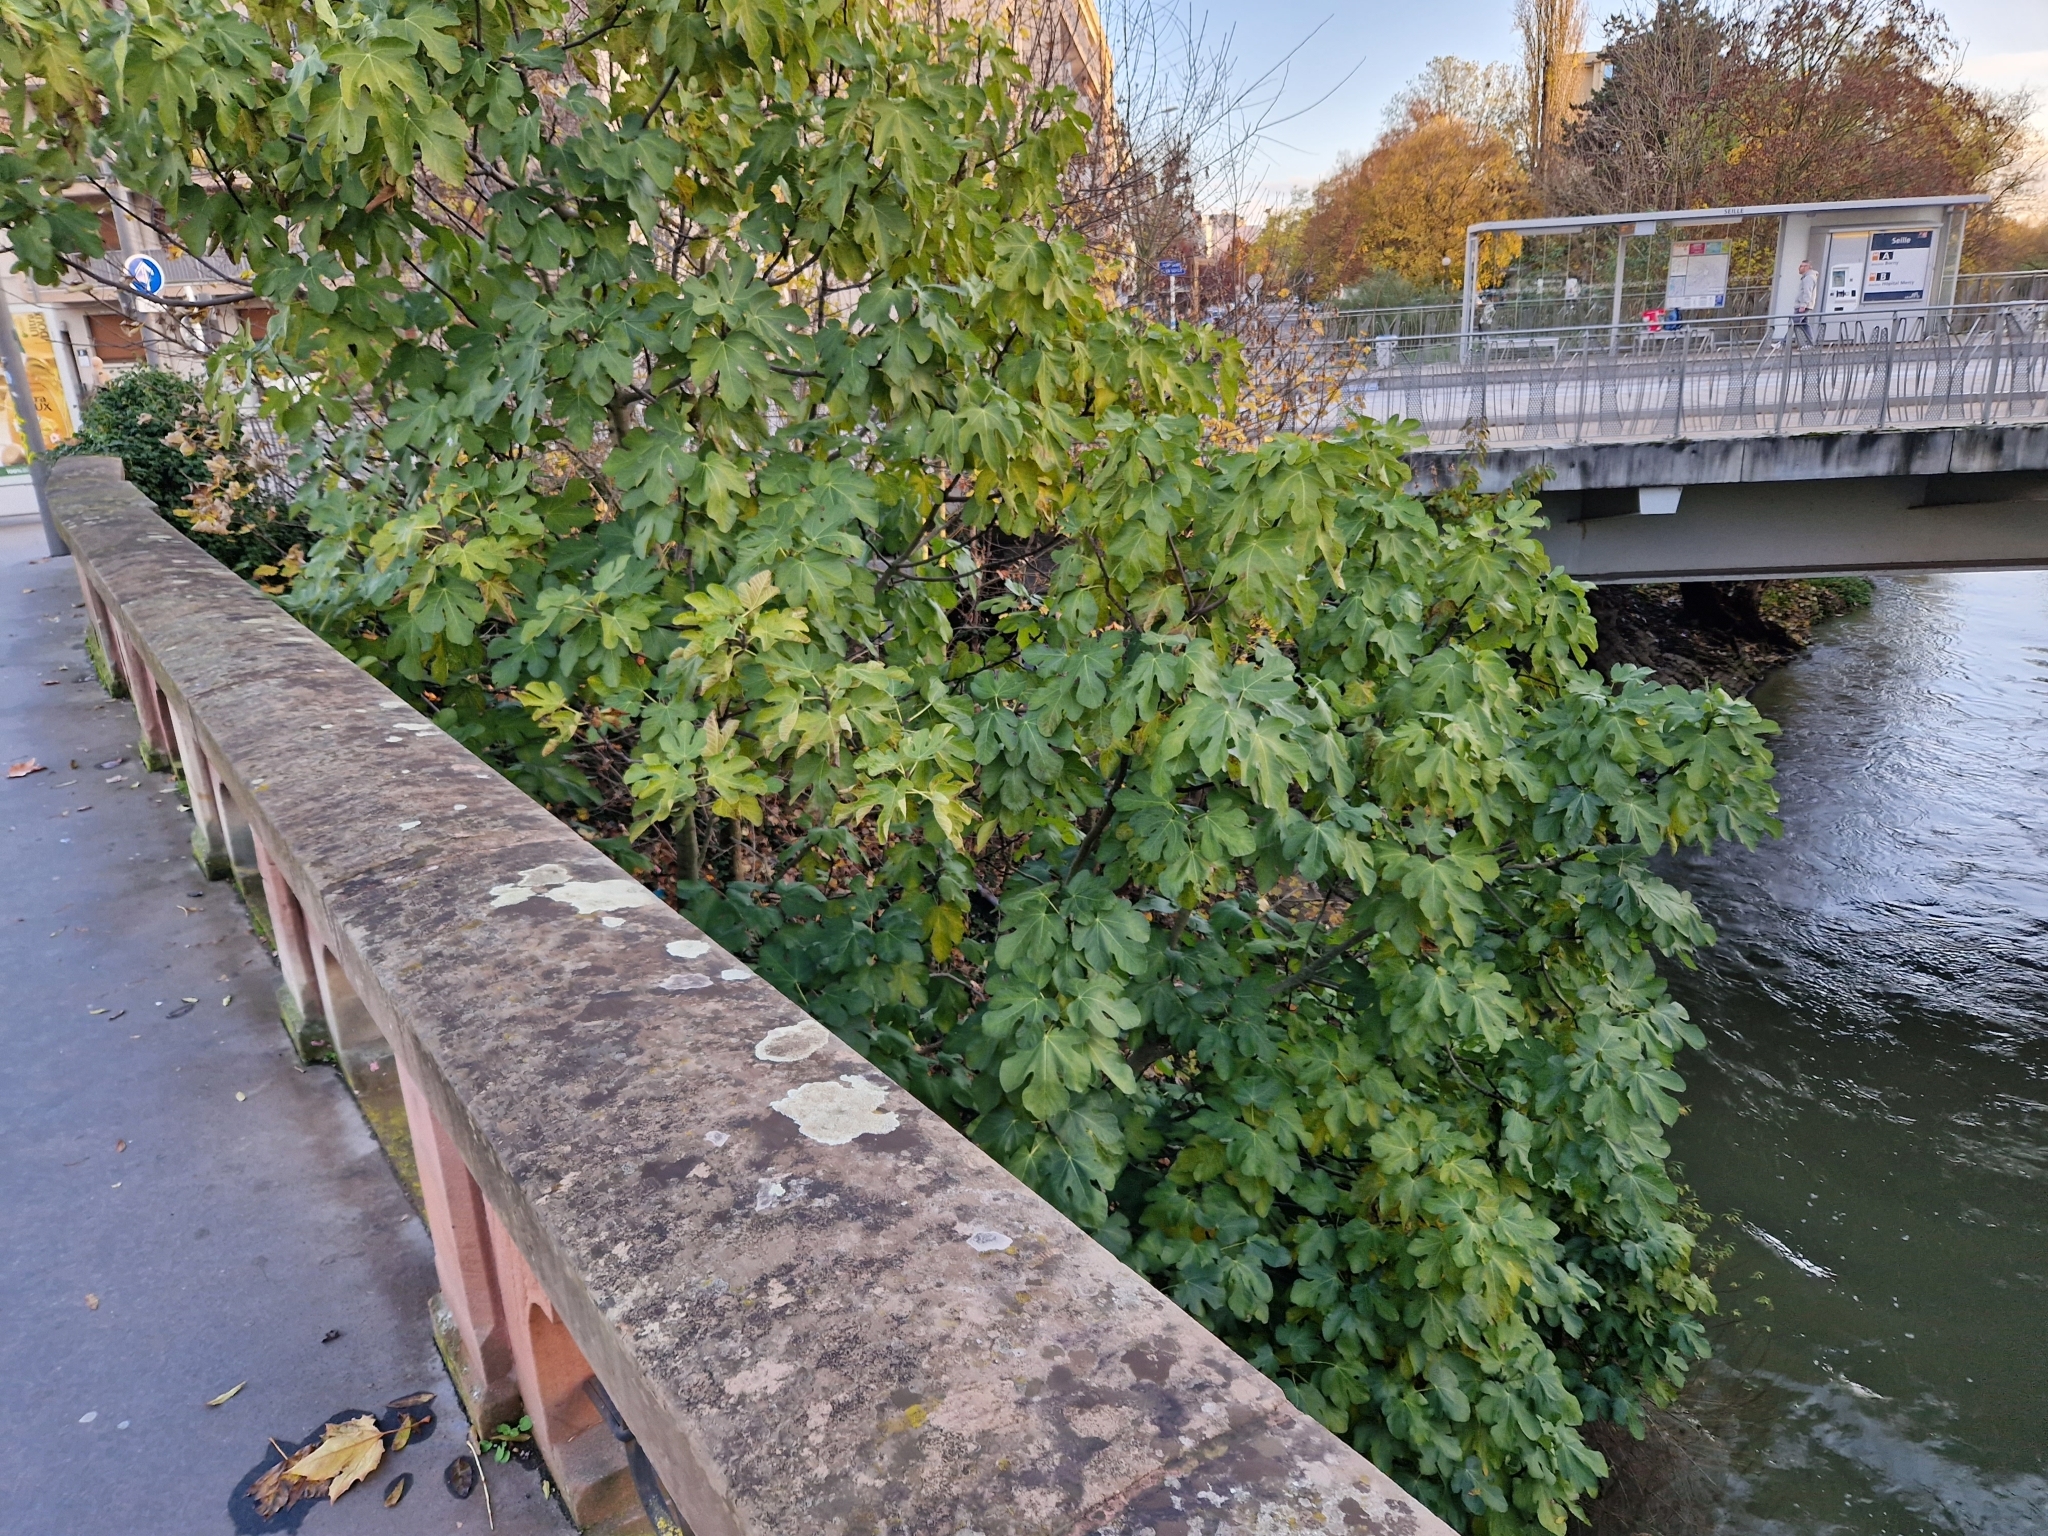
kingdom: Plantae
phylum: Tracheophyta
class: Magnoliopsida
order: Rosales
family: Moraceae
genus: Ficus
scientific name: Ficus carica
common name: Fig
